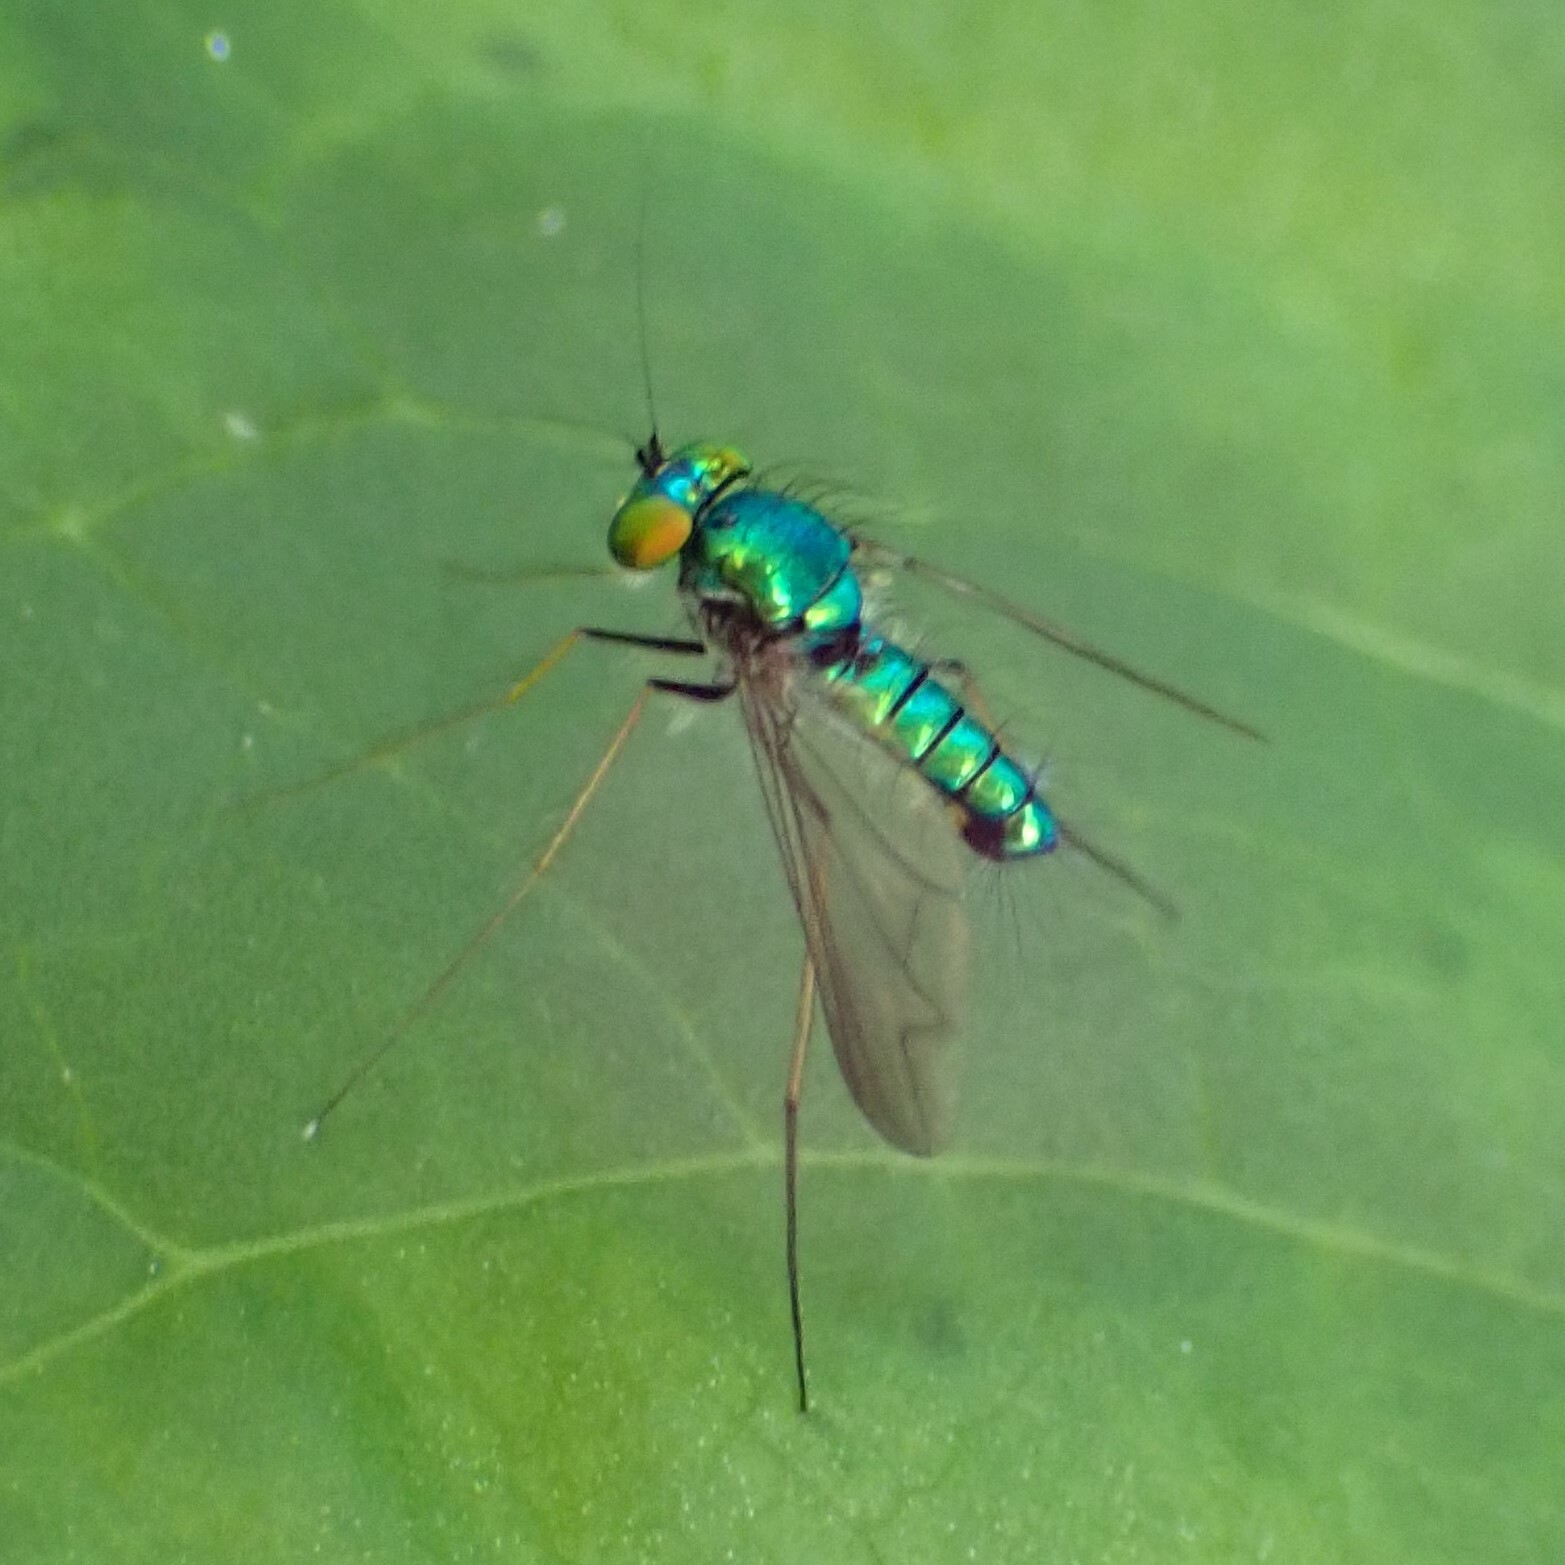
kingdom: Animalia
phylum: Arthropoda
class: Insecta
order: Diptera
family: Dolichopodidae
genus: Condylostylus
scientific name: Condylostylus comatus
